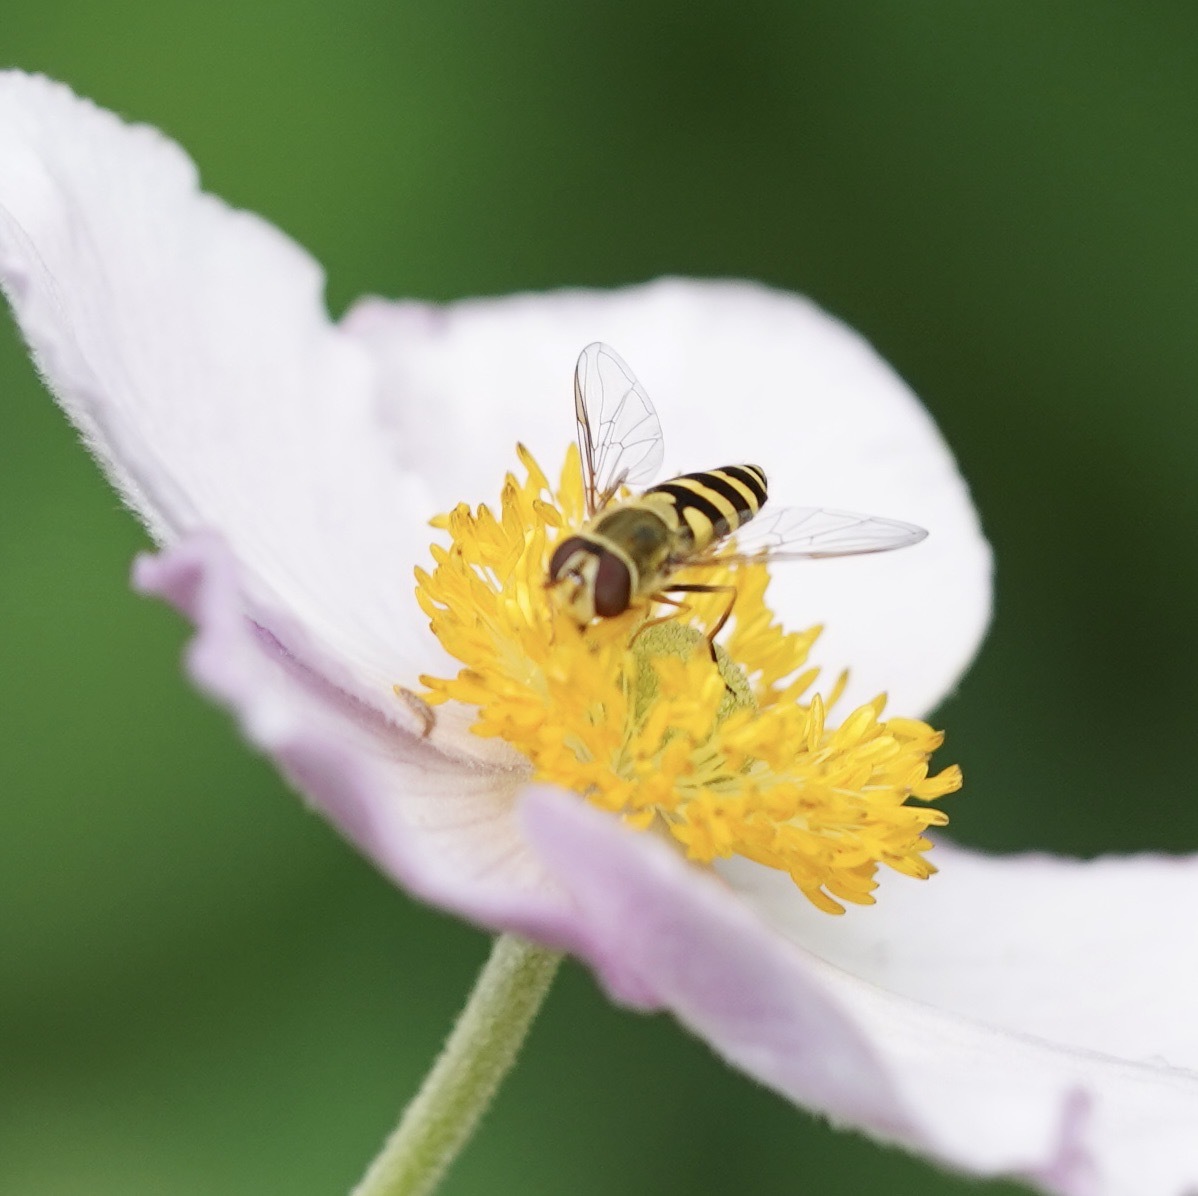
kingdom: Animalia
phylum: Arthropoda
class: Insecta
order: Diptera
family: Syrphidae
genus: Syrphus
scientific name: Syrphus
